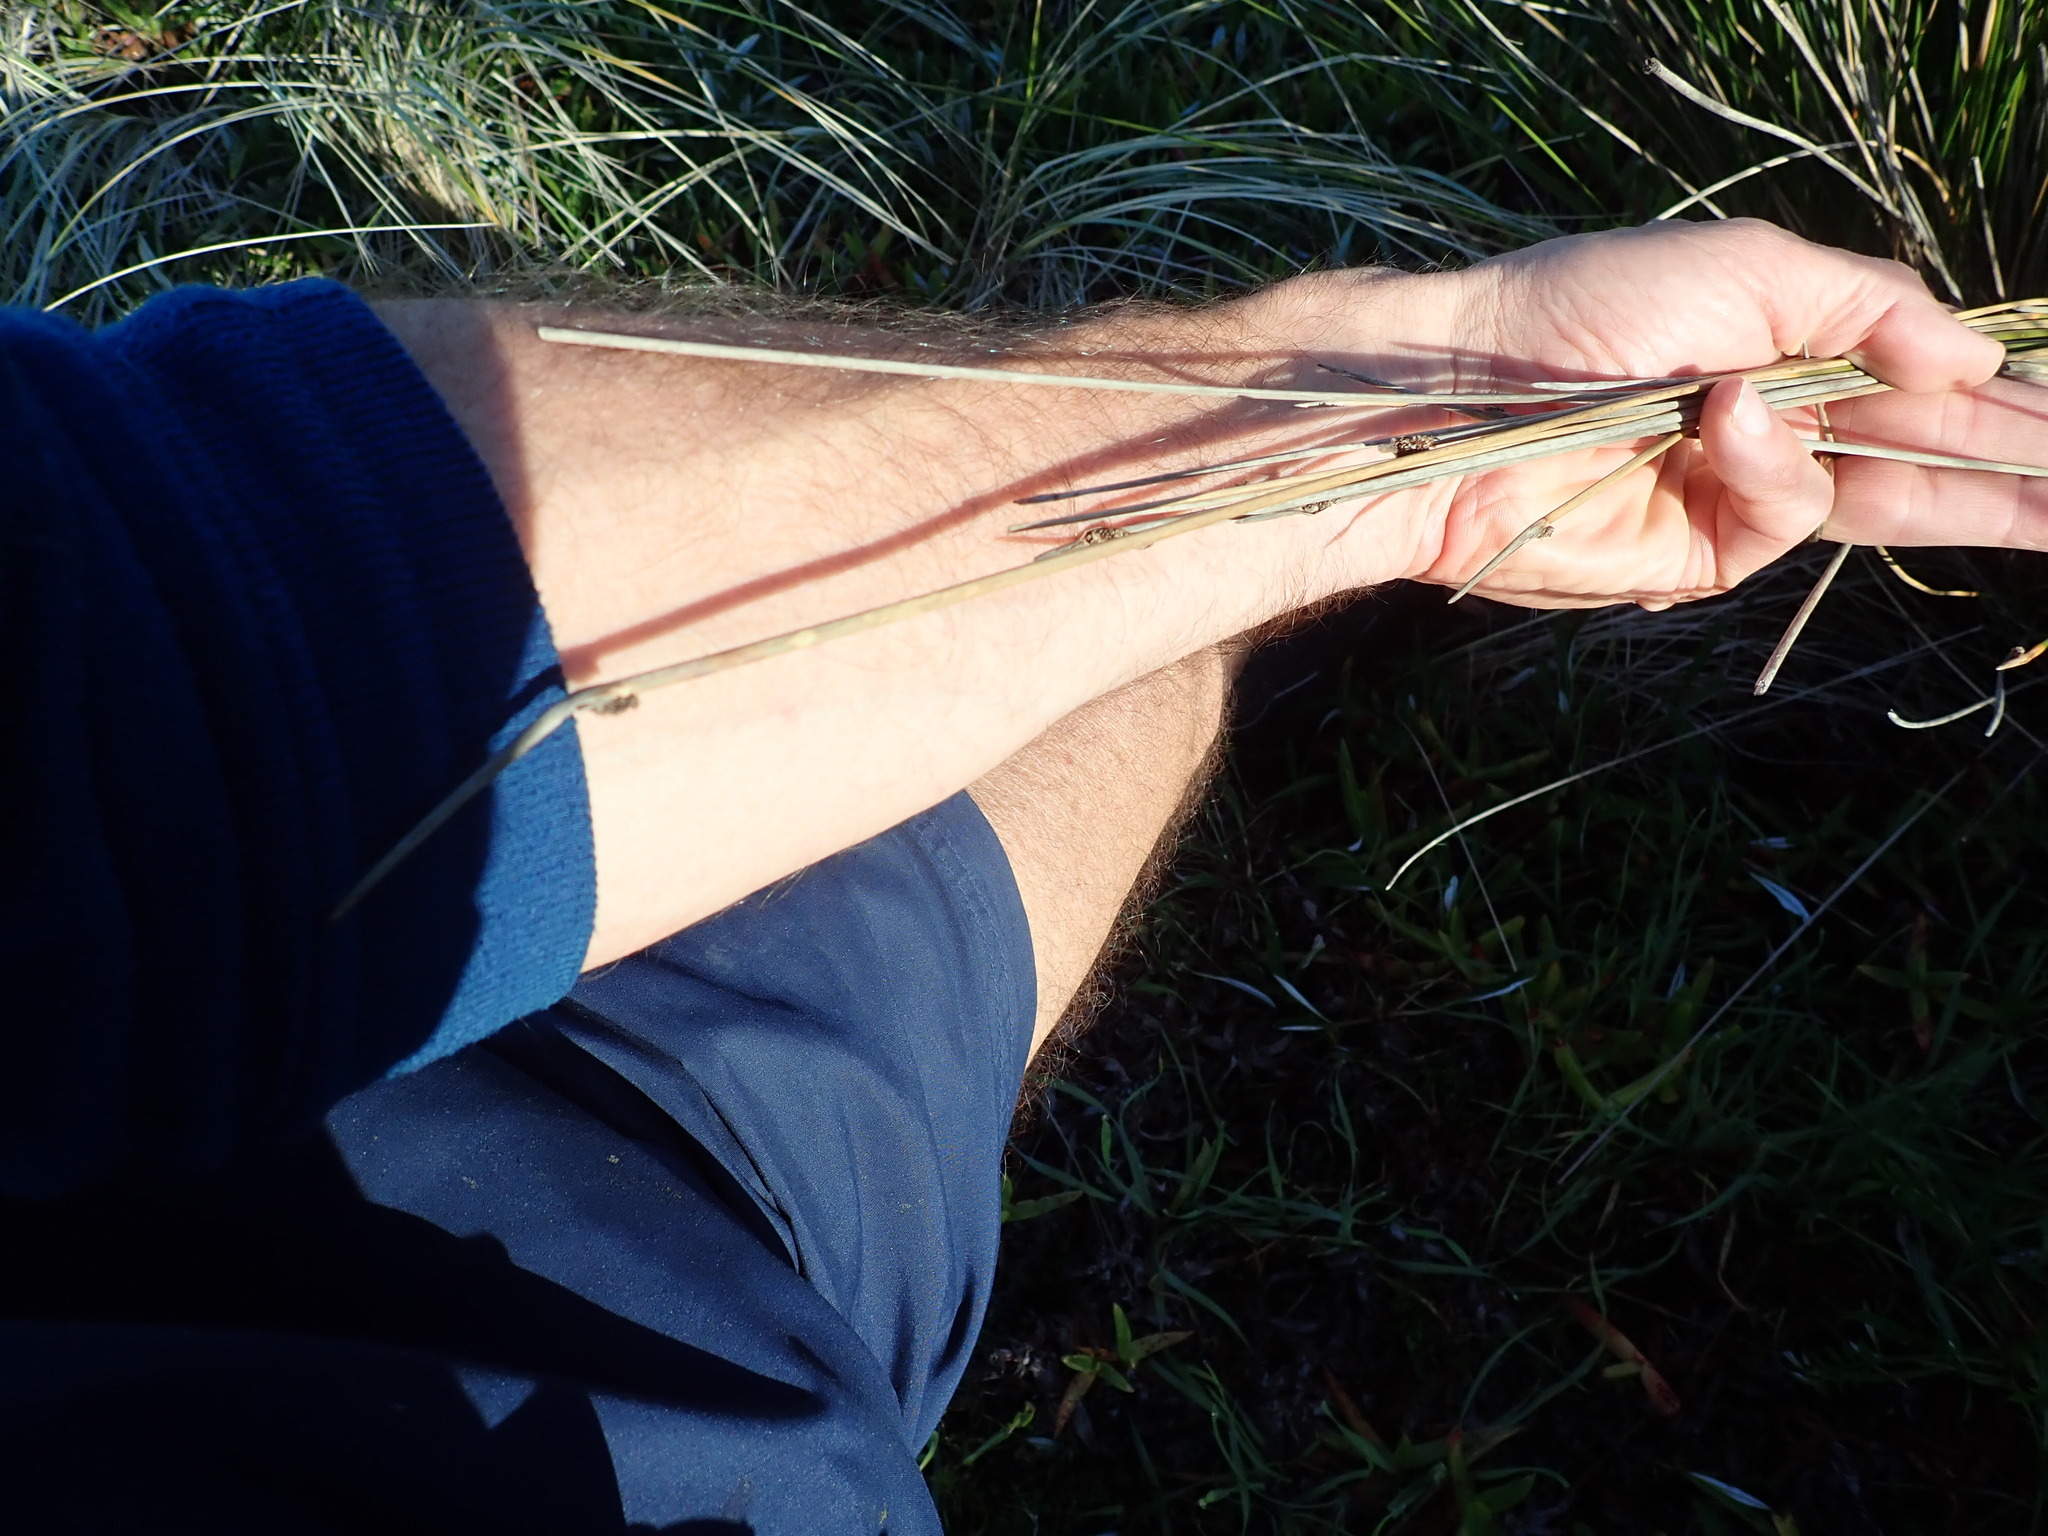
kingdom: Plantae
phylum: Tracheophyta
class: Liliopsida
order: Poales
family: Cyperaceae
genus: Ficinia
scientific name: Ficinia nodosa
